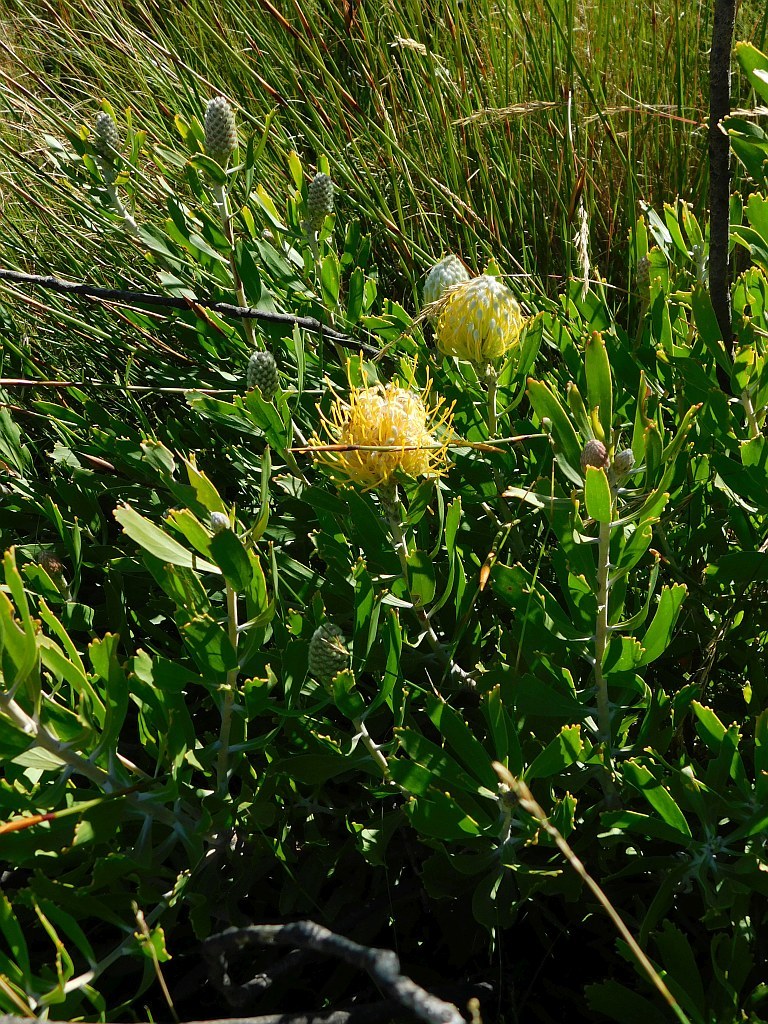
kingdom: Plantae
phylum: Tracheophyta
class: Magnoliopsida
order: Proteales
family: Proteaceae
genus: Leucospermum
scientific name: Leucospermum cuneiforme
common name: Common pincushion
